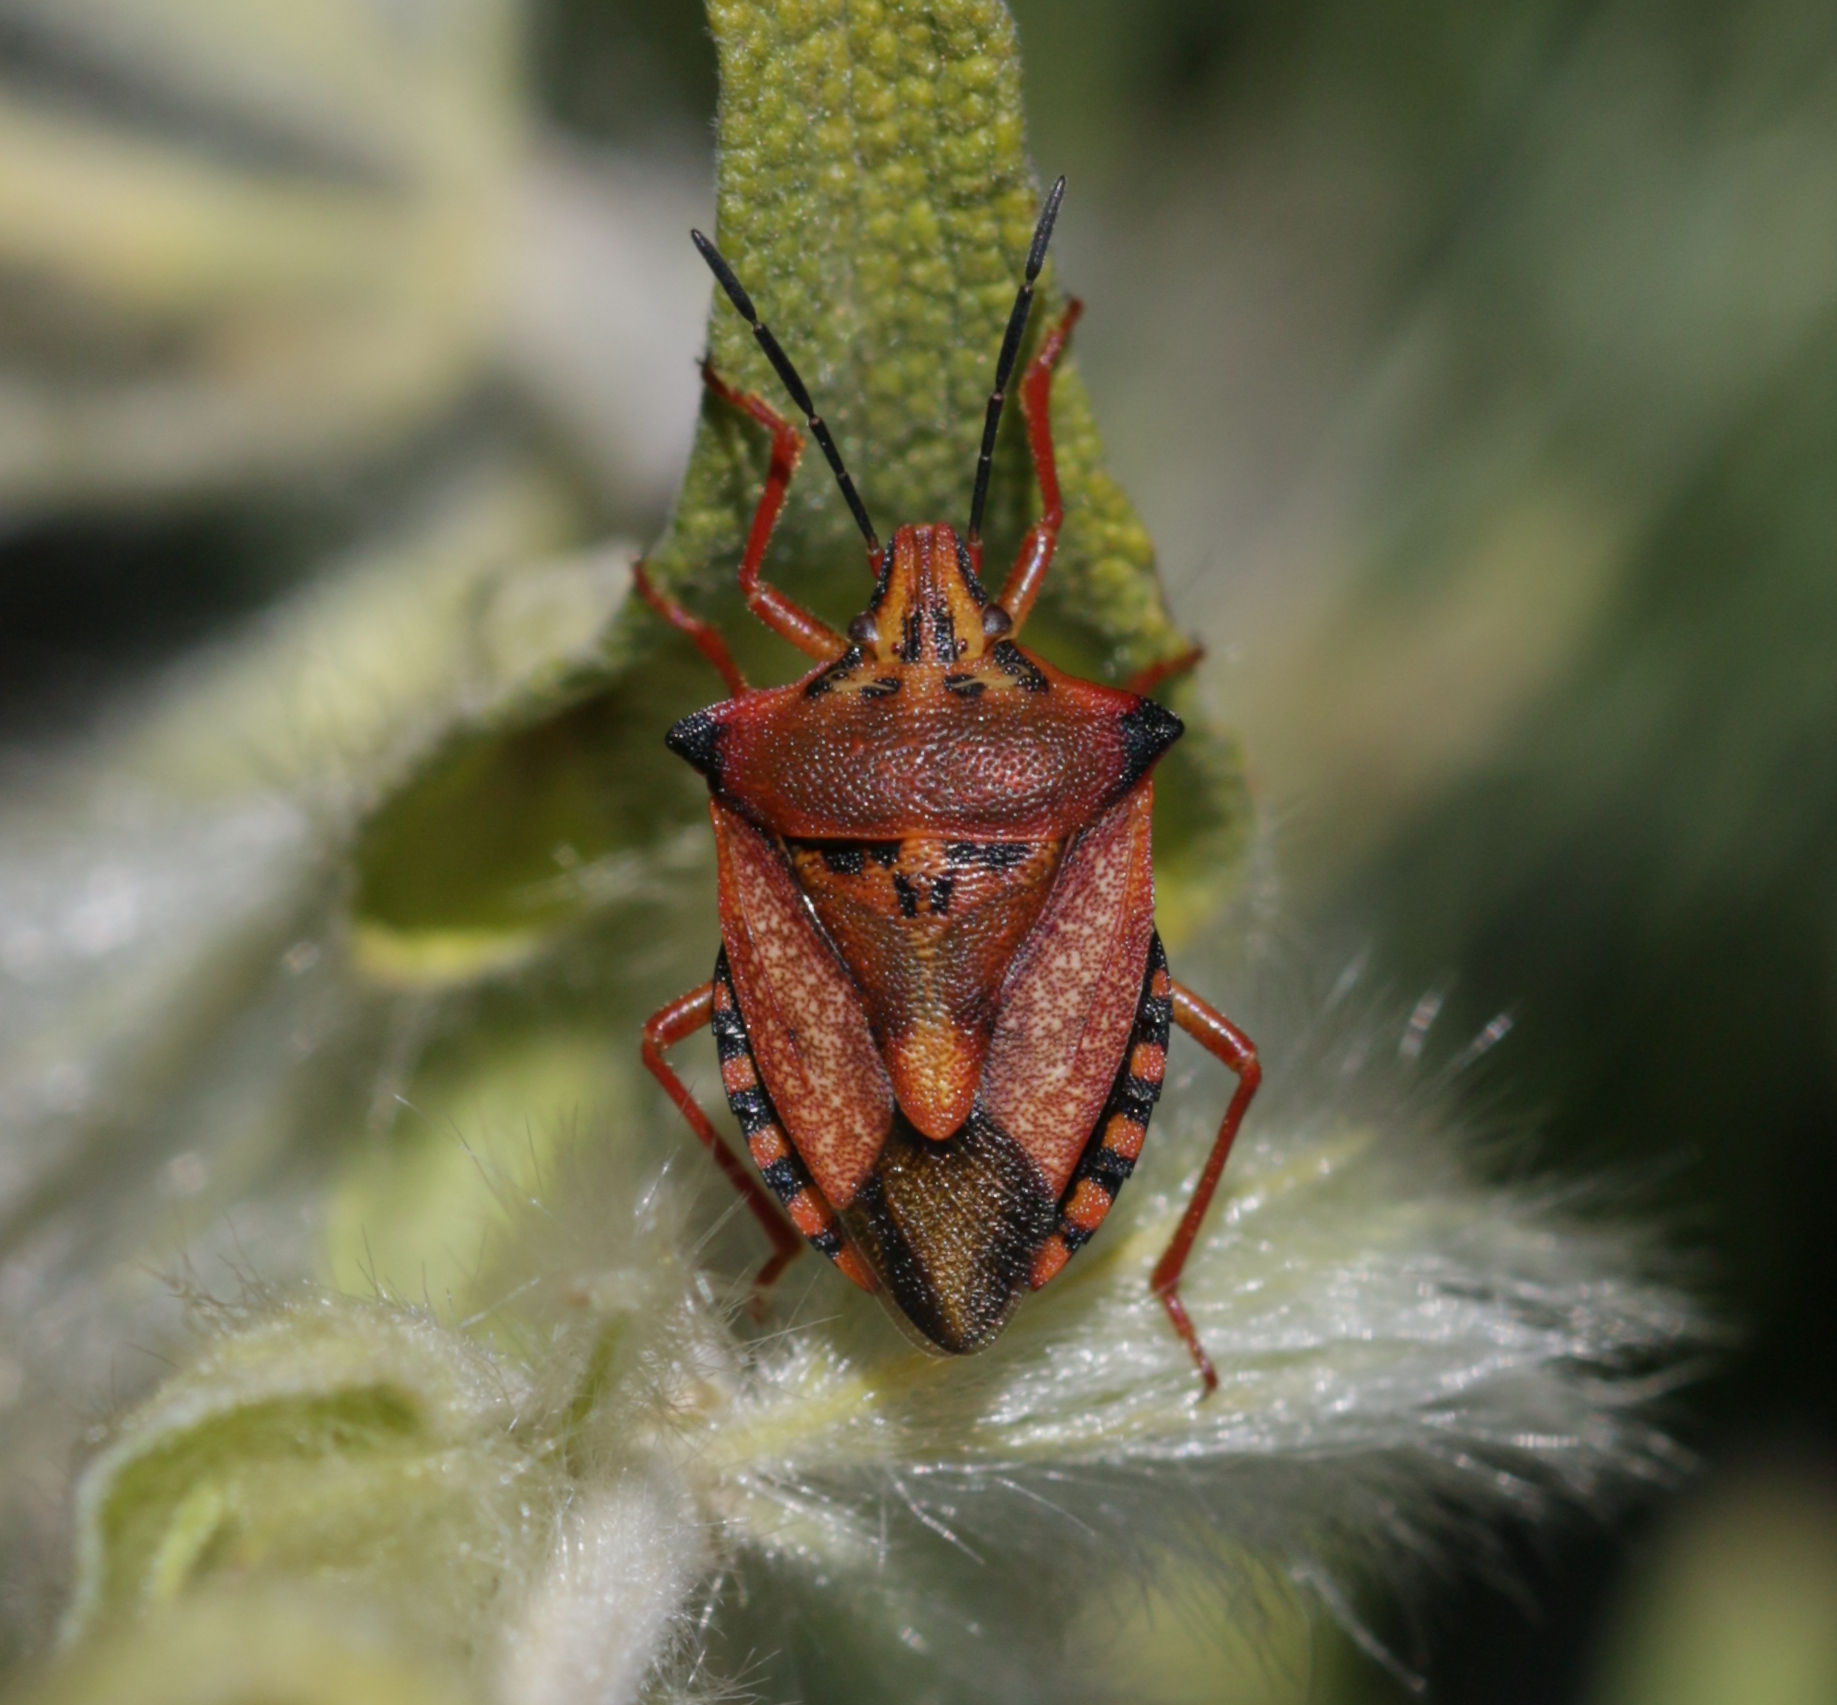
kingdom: Animalia
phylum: Arthropoda
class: Insecta
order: Hemiptera
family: Pentatomidae
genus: Carpocoris
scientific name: Carpocoris mediterraneus
